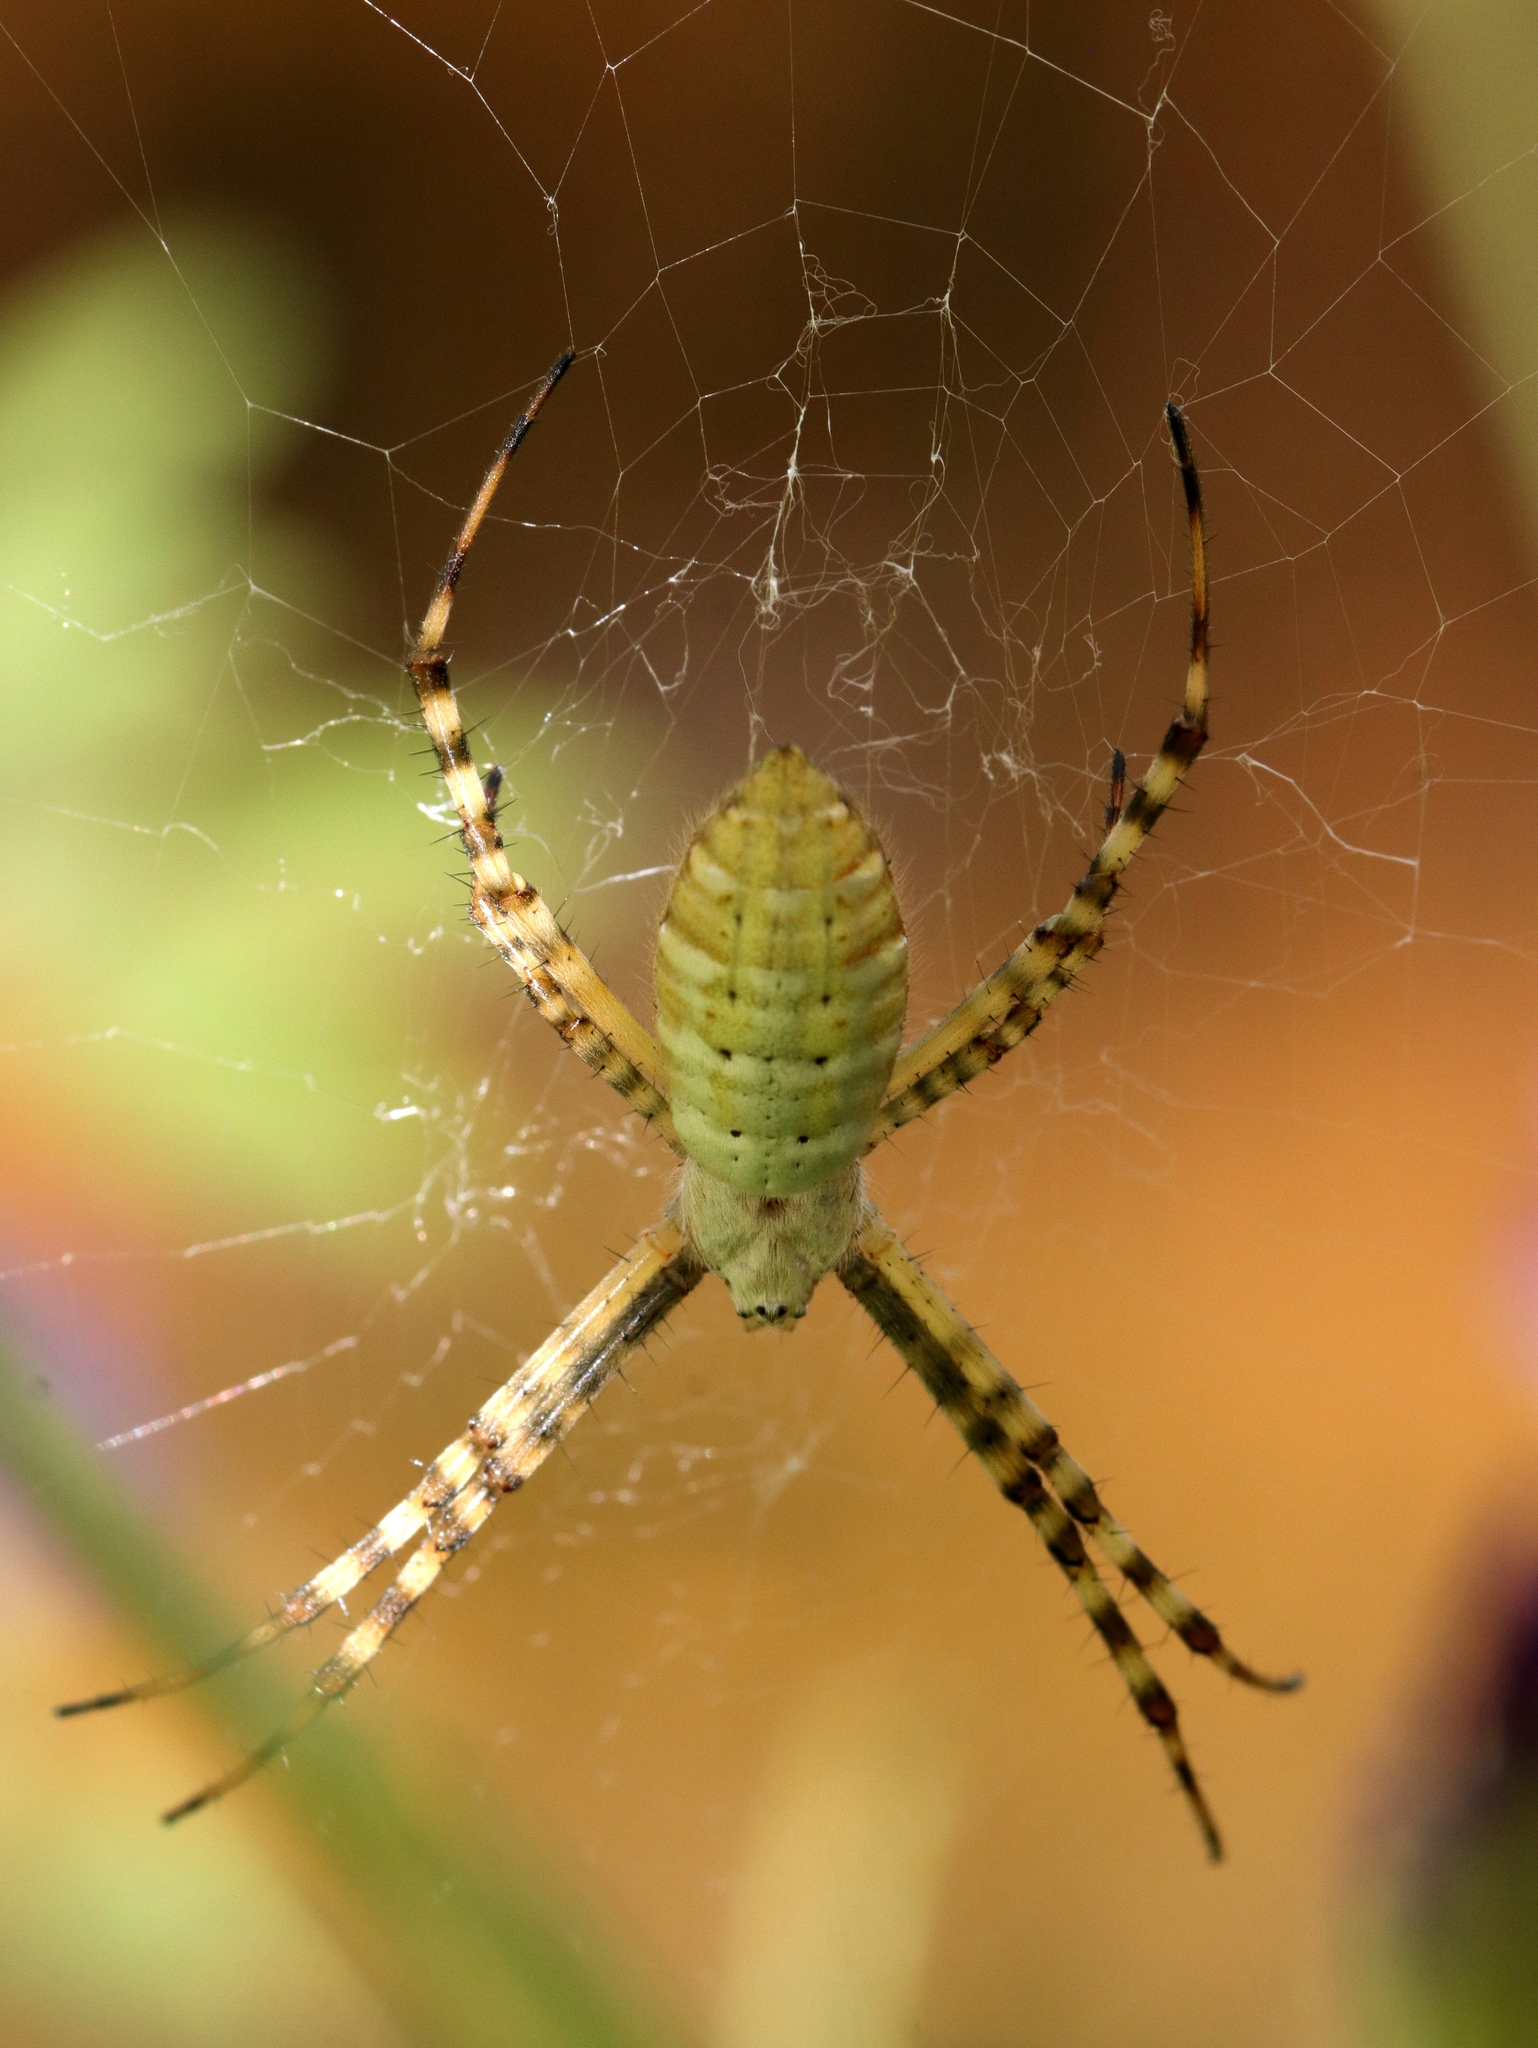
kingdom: Animalia
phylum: Arthropoda
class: Arachnida
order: Araneae
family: Araneidae
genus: Argiope
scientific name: Argiope trifasciata
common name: Banded garden spider
